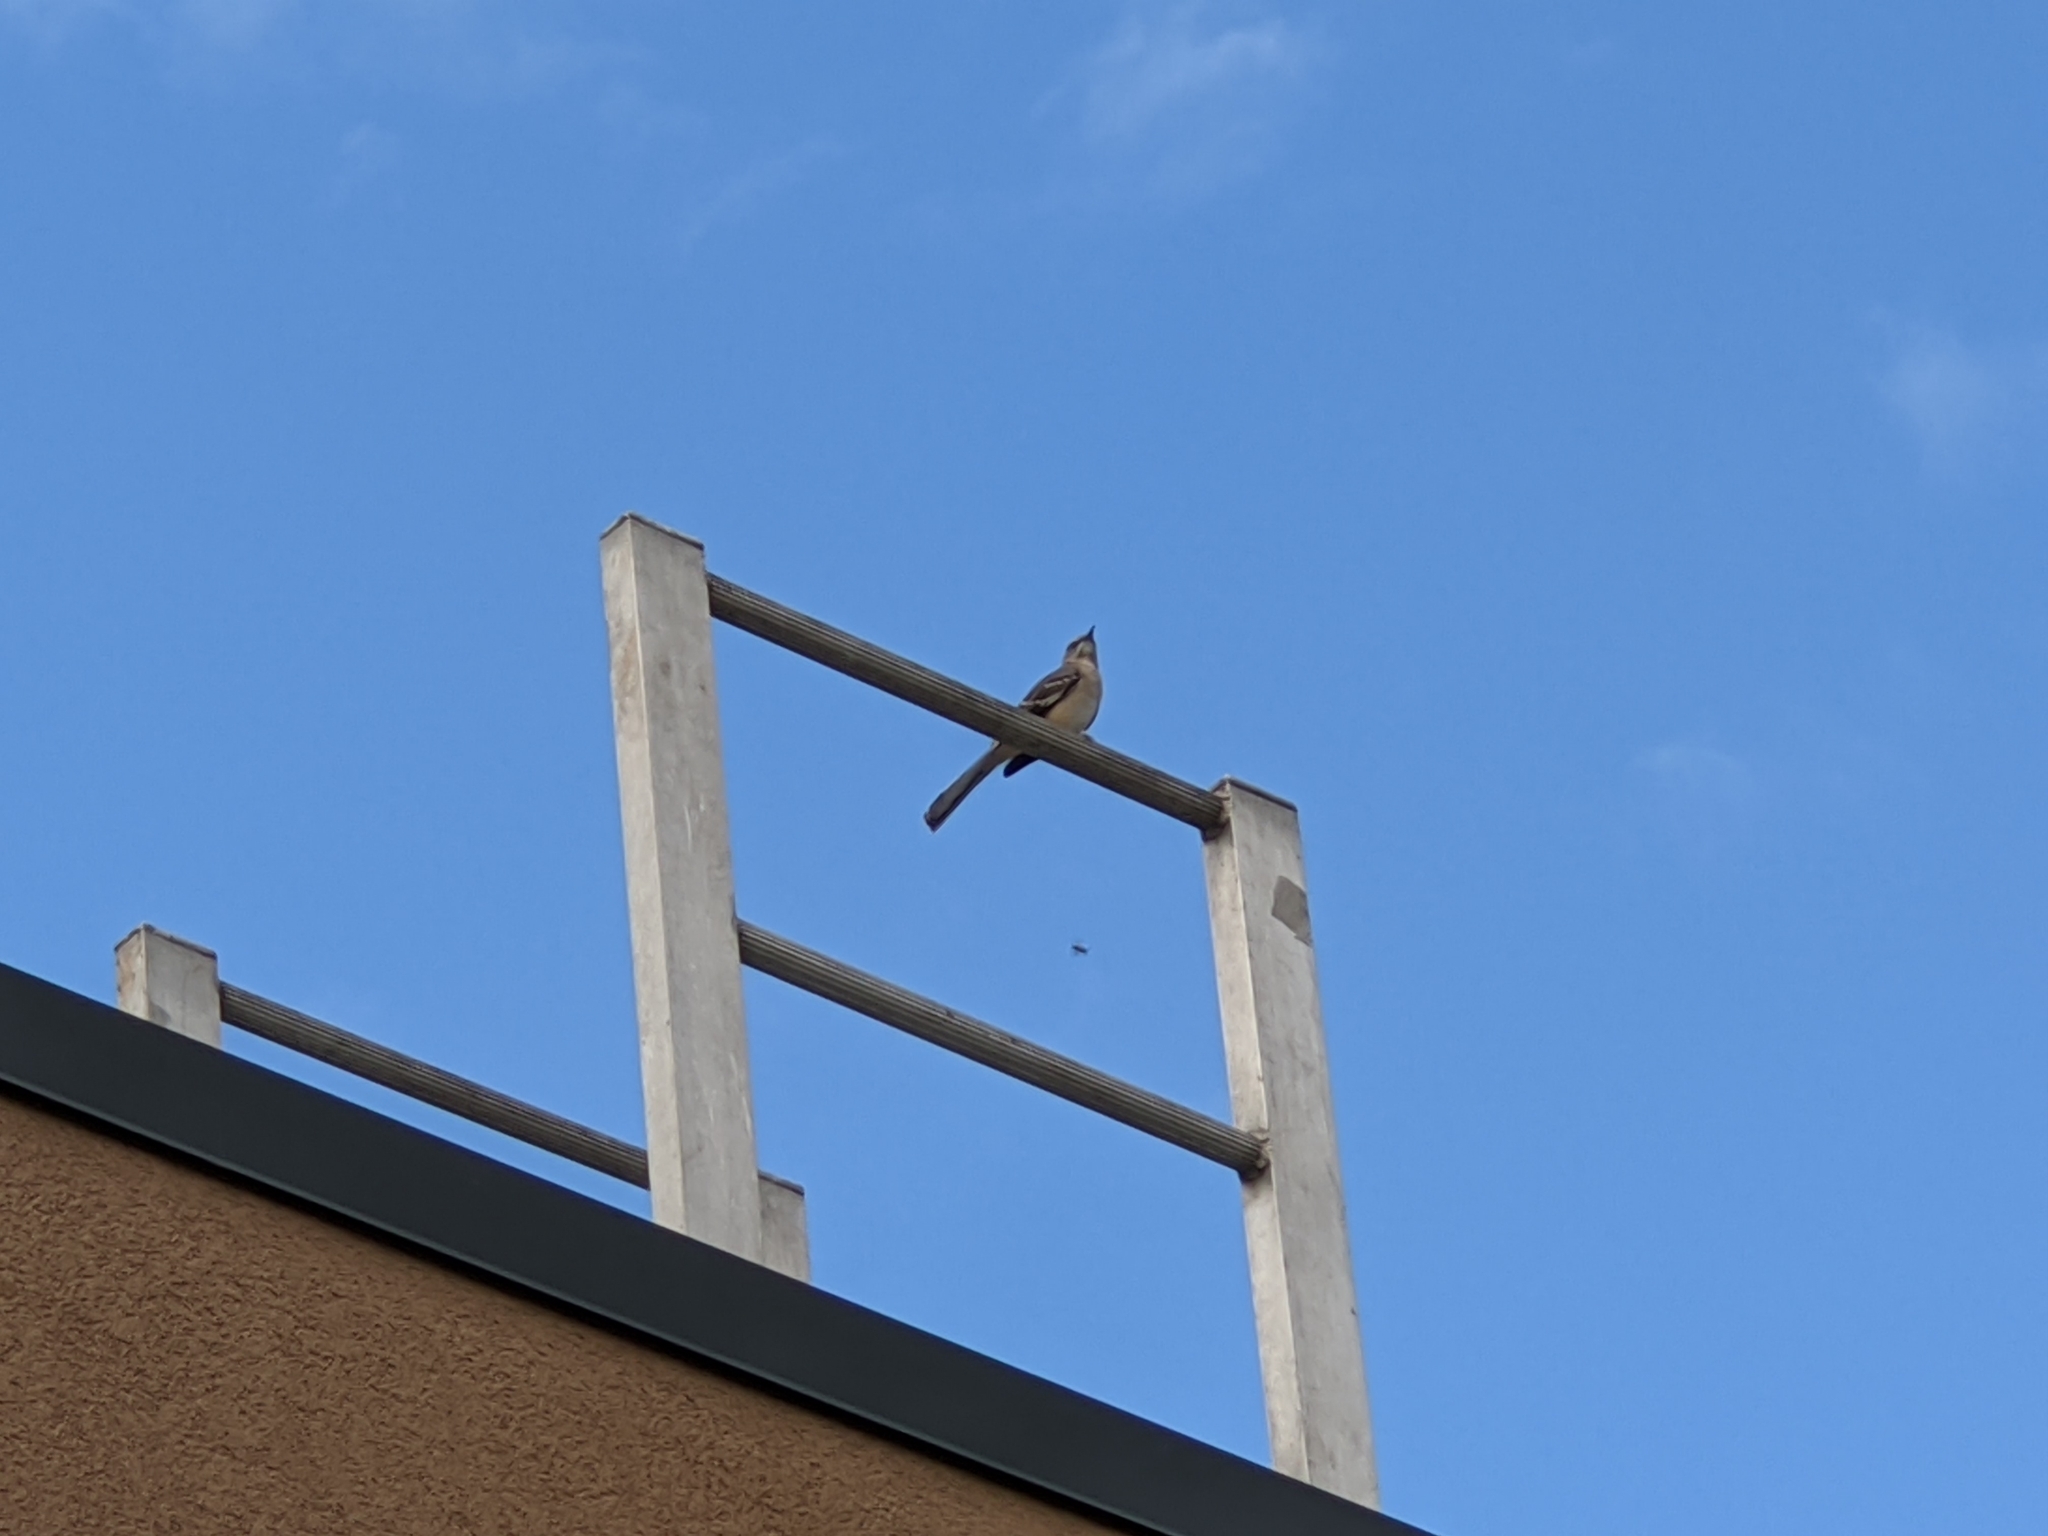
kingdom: Animalia
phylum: Chordata
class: Aves
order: Passeriformes
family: Mimidae
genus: Mimus
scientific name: Mimus polyglottos
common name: Northern mockingbird
